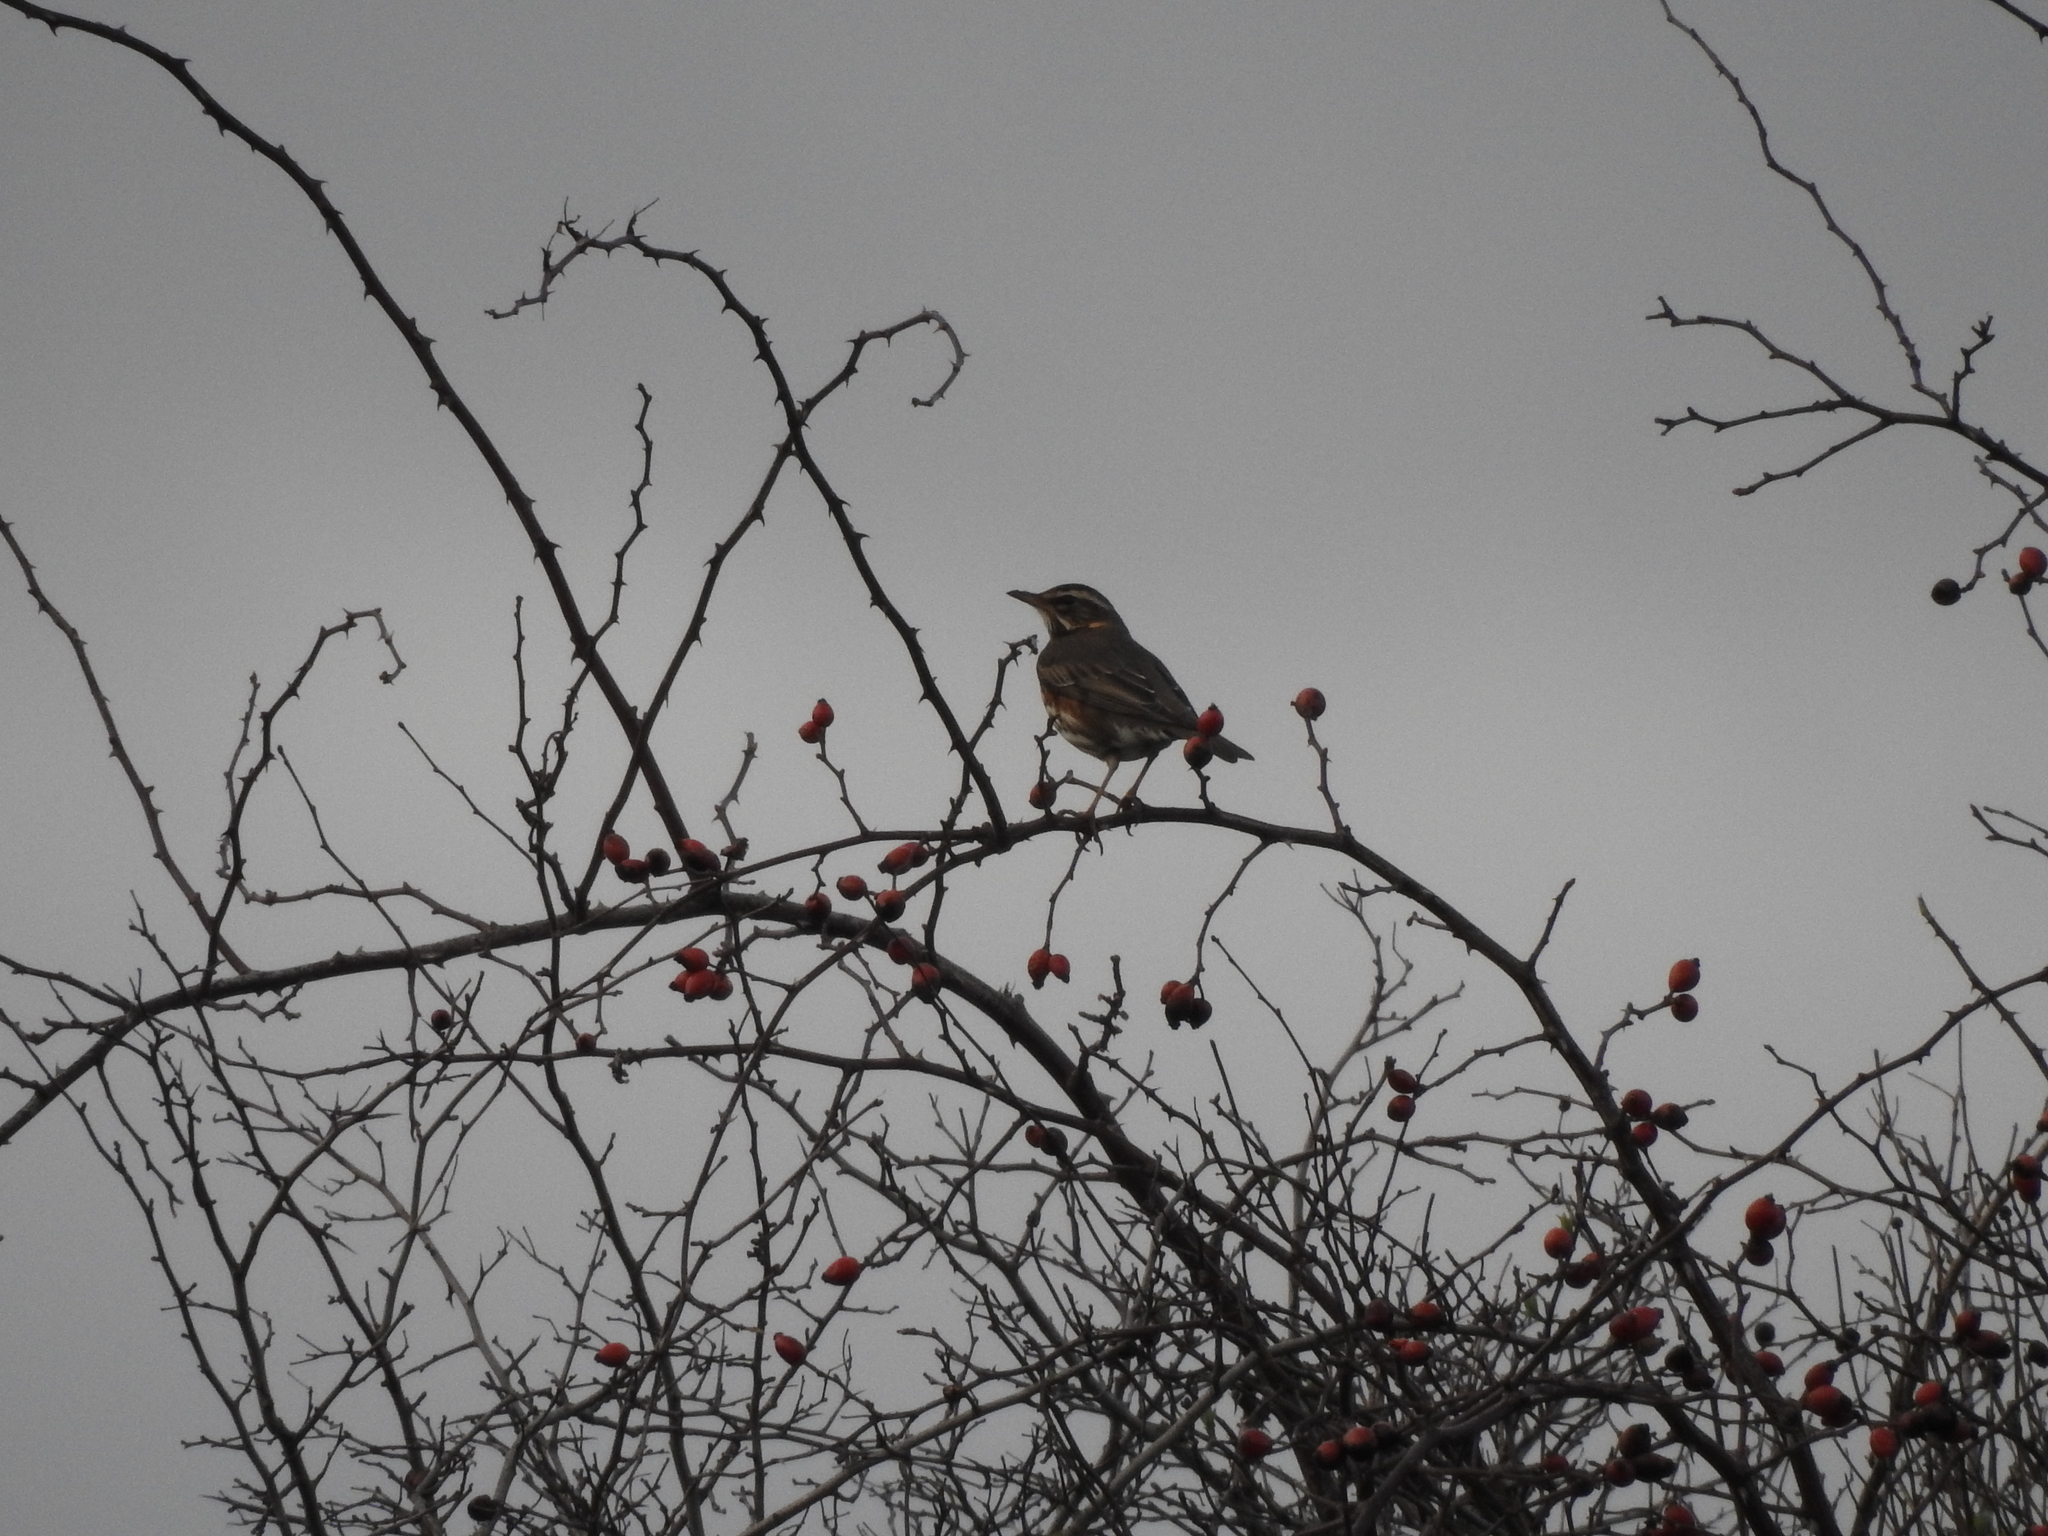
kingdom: Animalia
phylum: Chordata
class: Aves
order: Passeriformes
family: Turdidae
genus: Turdus
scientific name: Turdus iliacus
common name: Redwing
